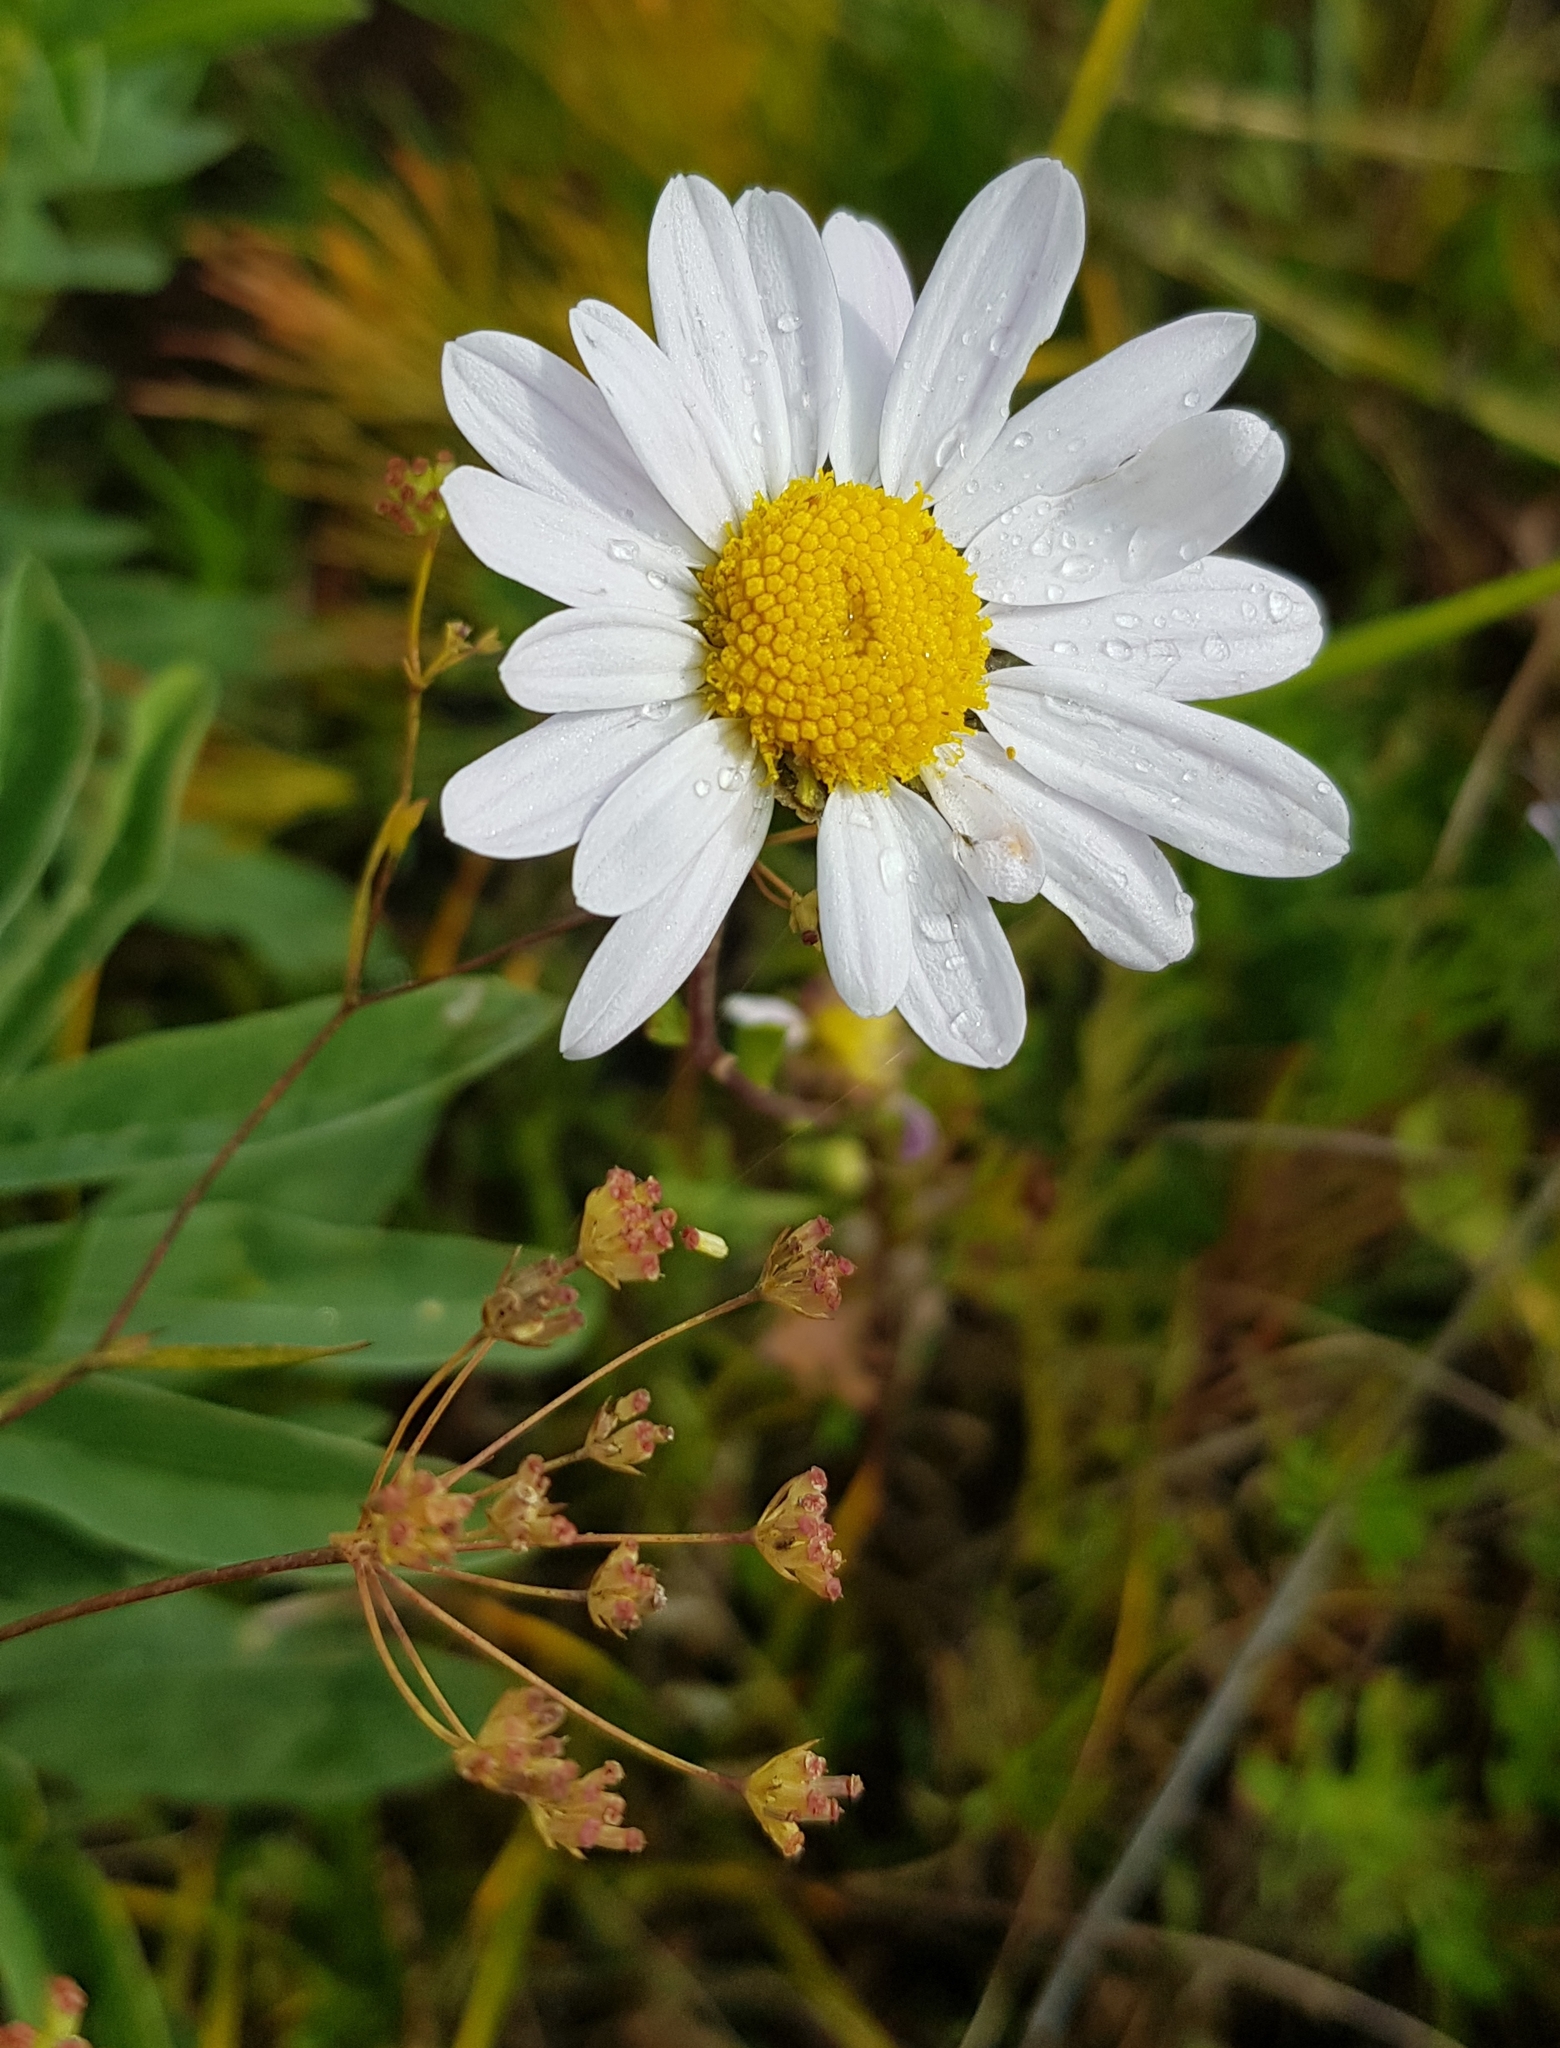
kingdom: Plantae
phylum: Tracheophyta
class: Magnoliopsida
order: Asterales
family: Asteraceae
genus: Chrysanthemum
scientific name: Chrysanthemum zawadzkii
